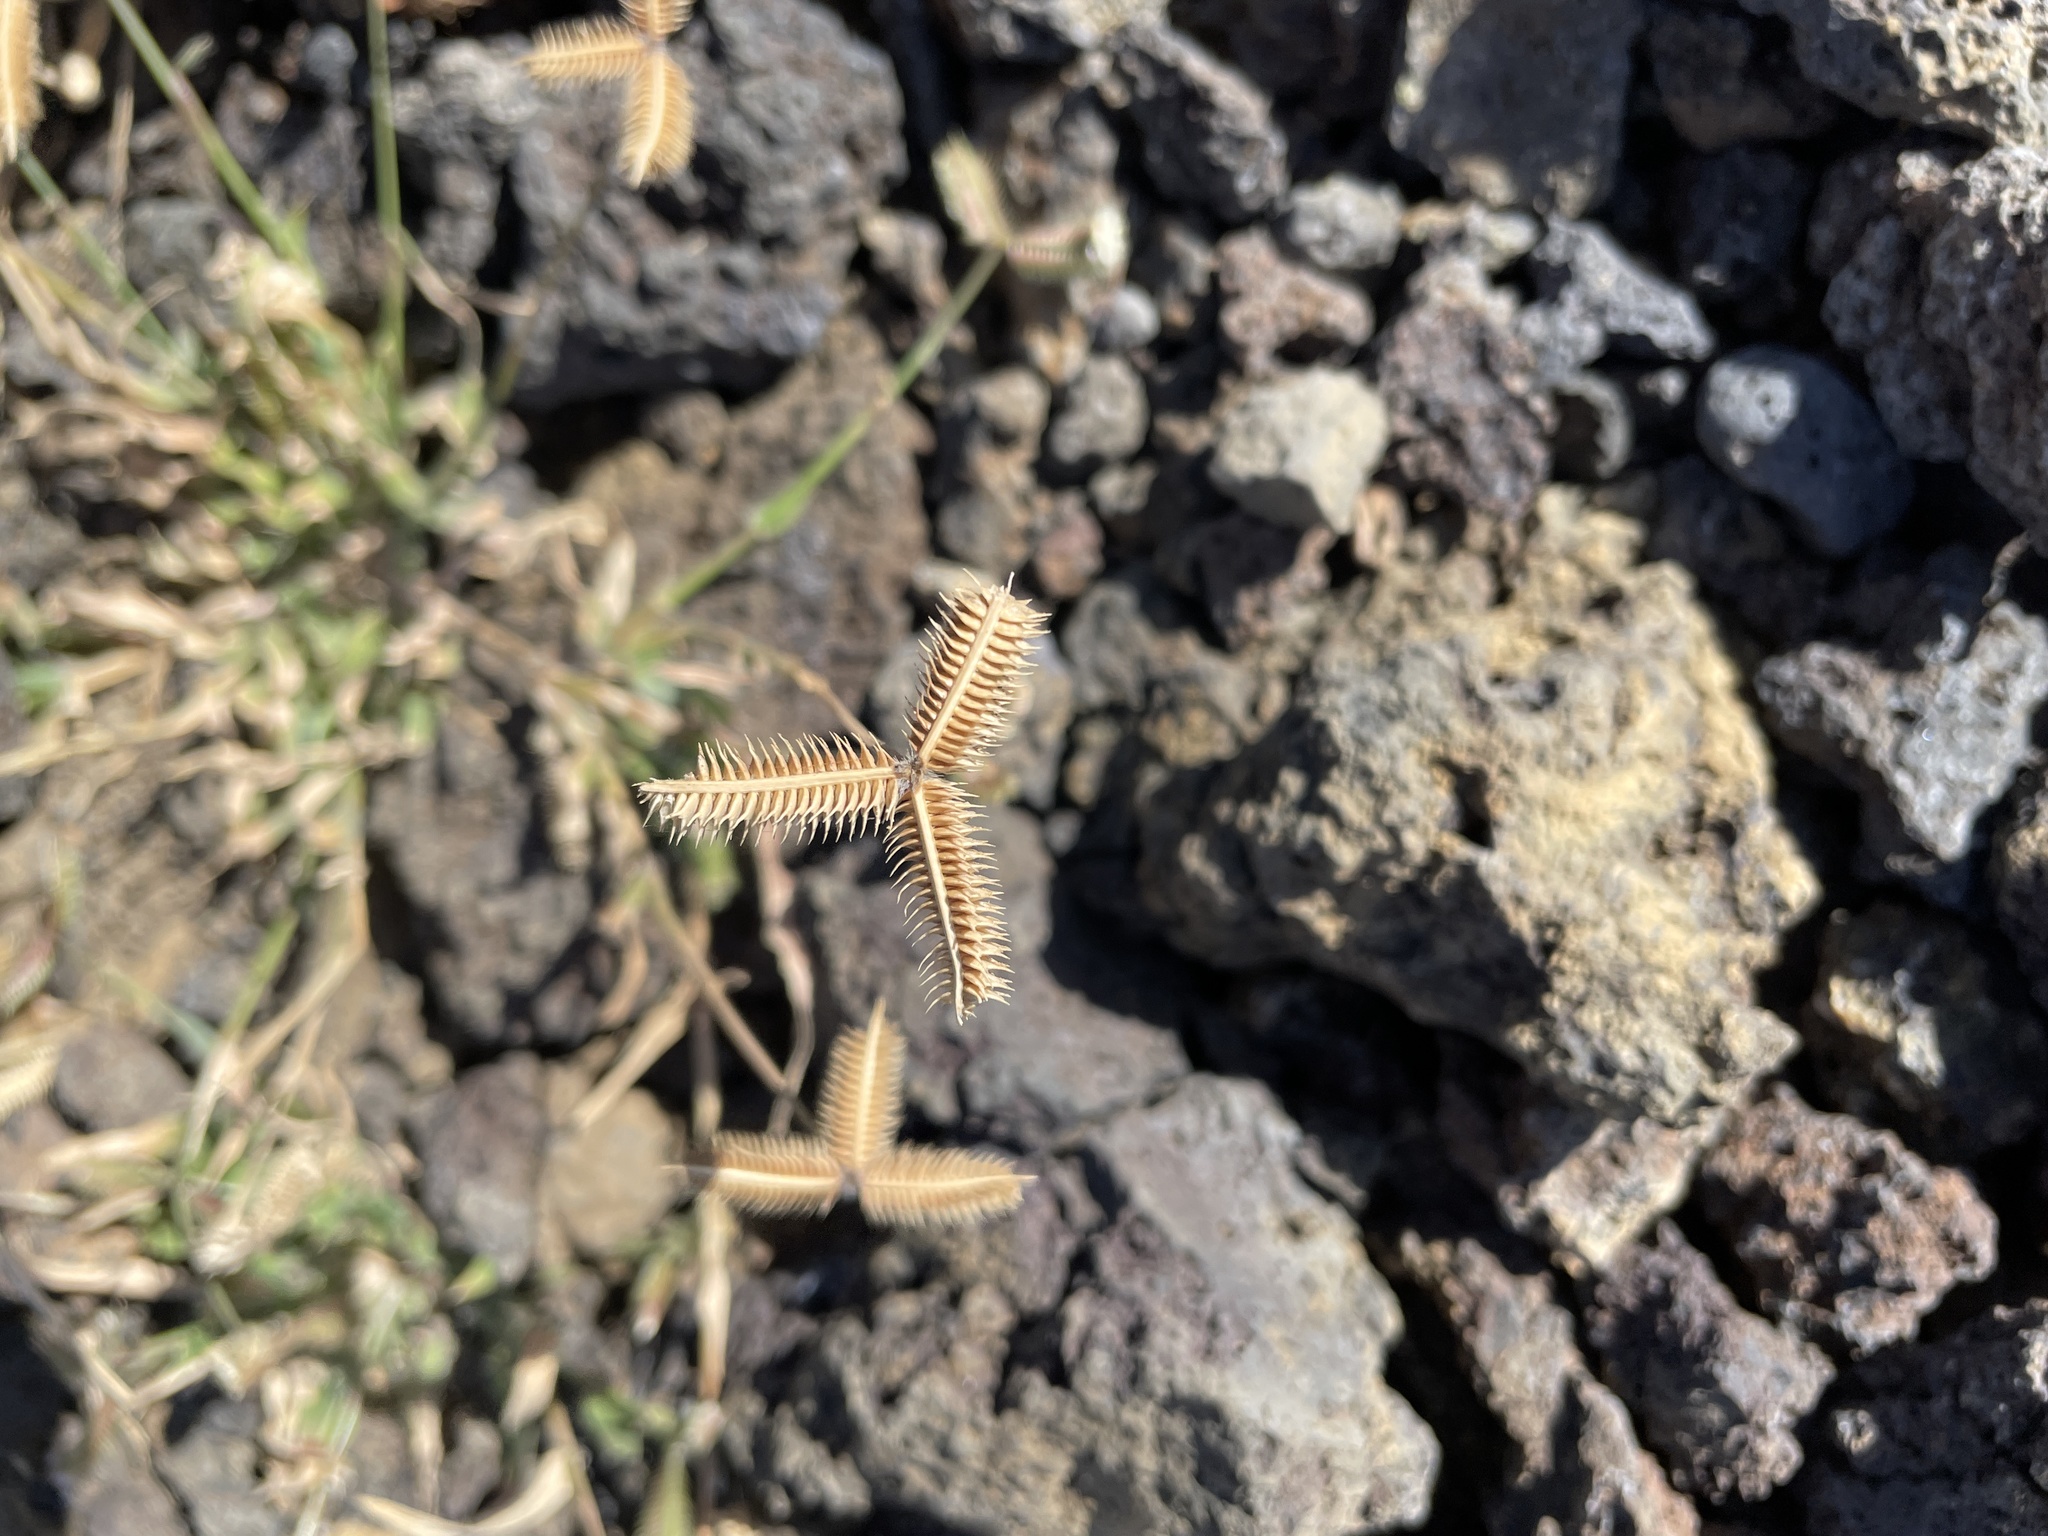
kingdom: Plantae
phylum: Tracheophyta
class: Liliopsida
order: Poales
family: Poaceae
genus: Dactyloctenium
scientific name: Dactyloctenium aegyptium
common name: Egyptian grass
